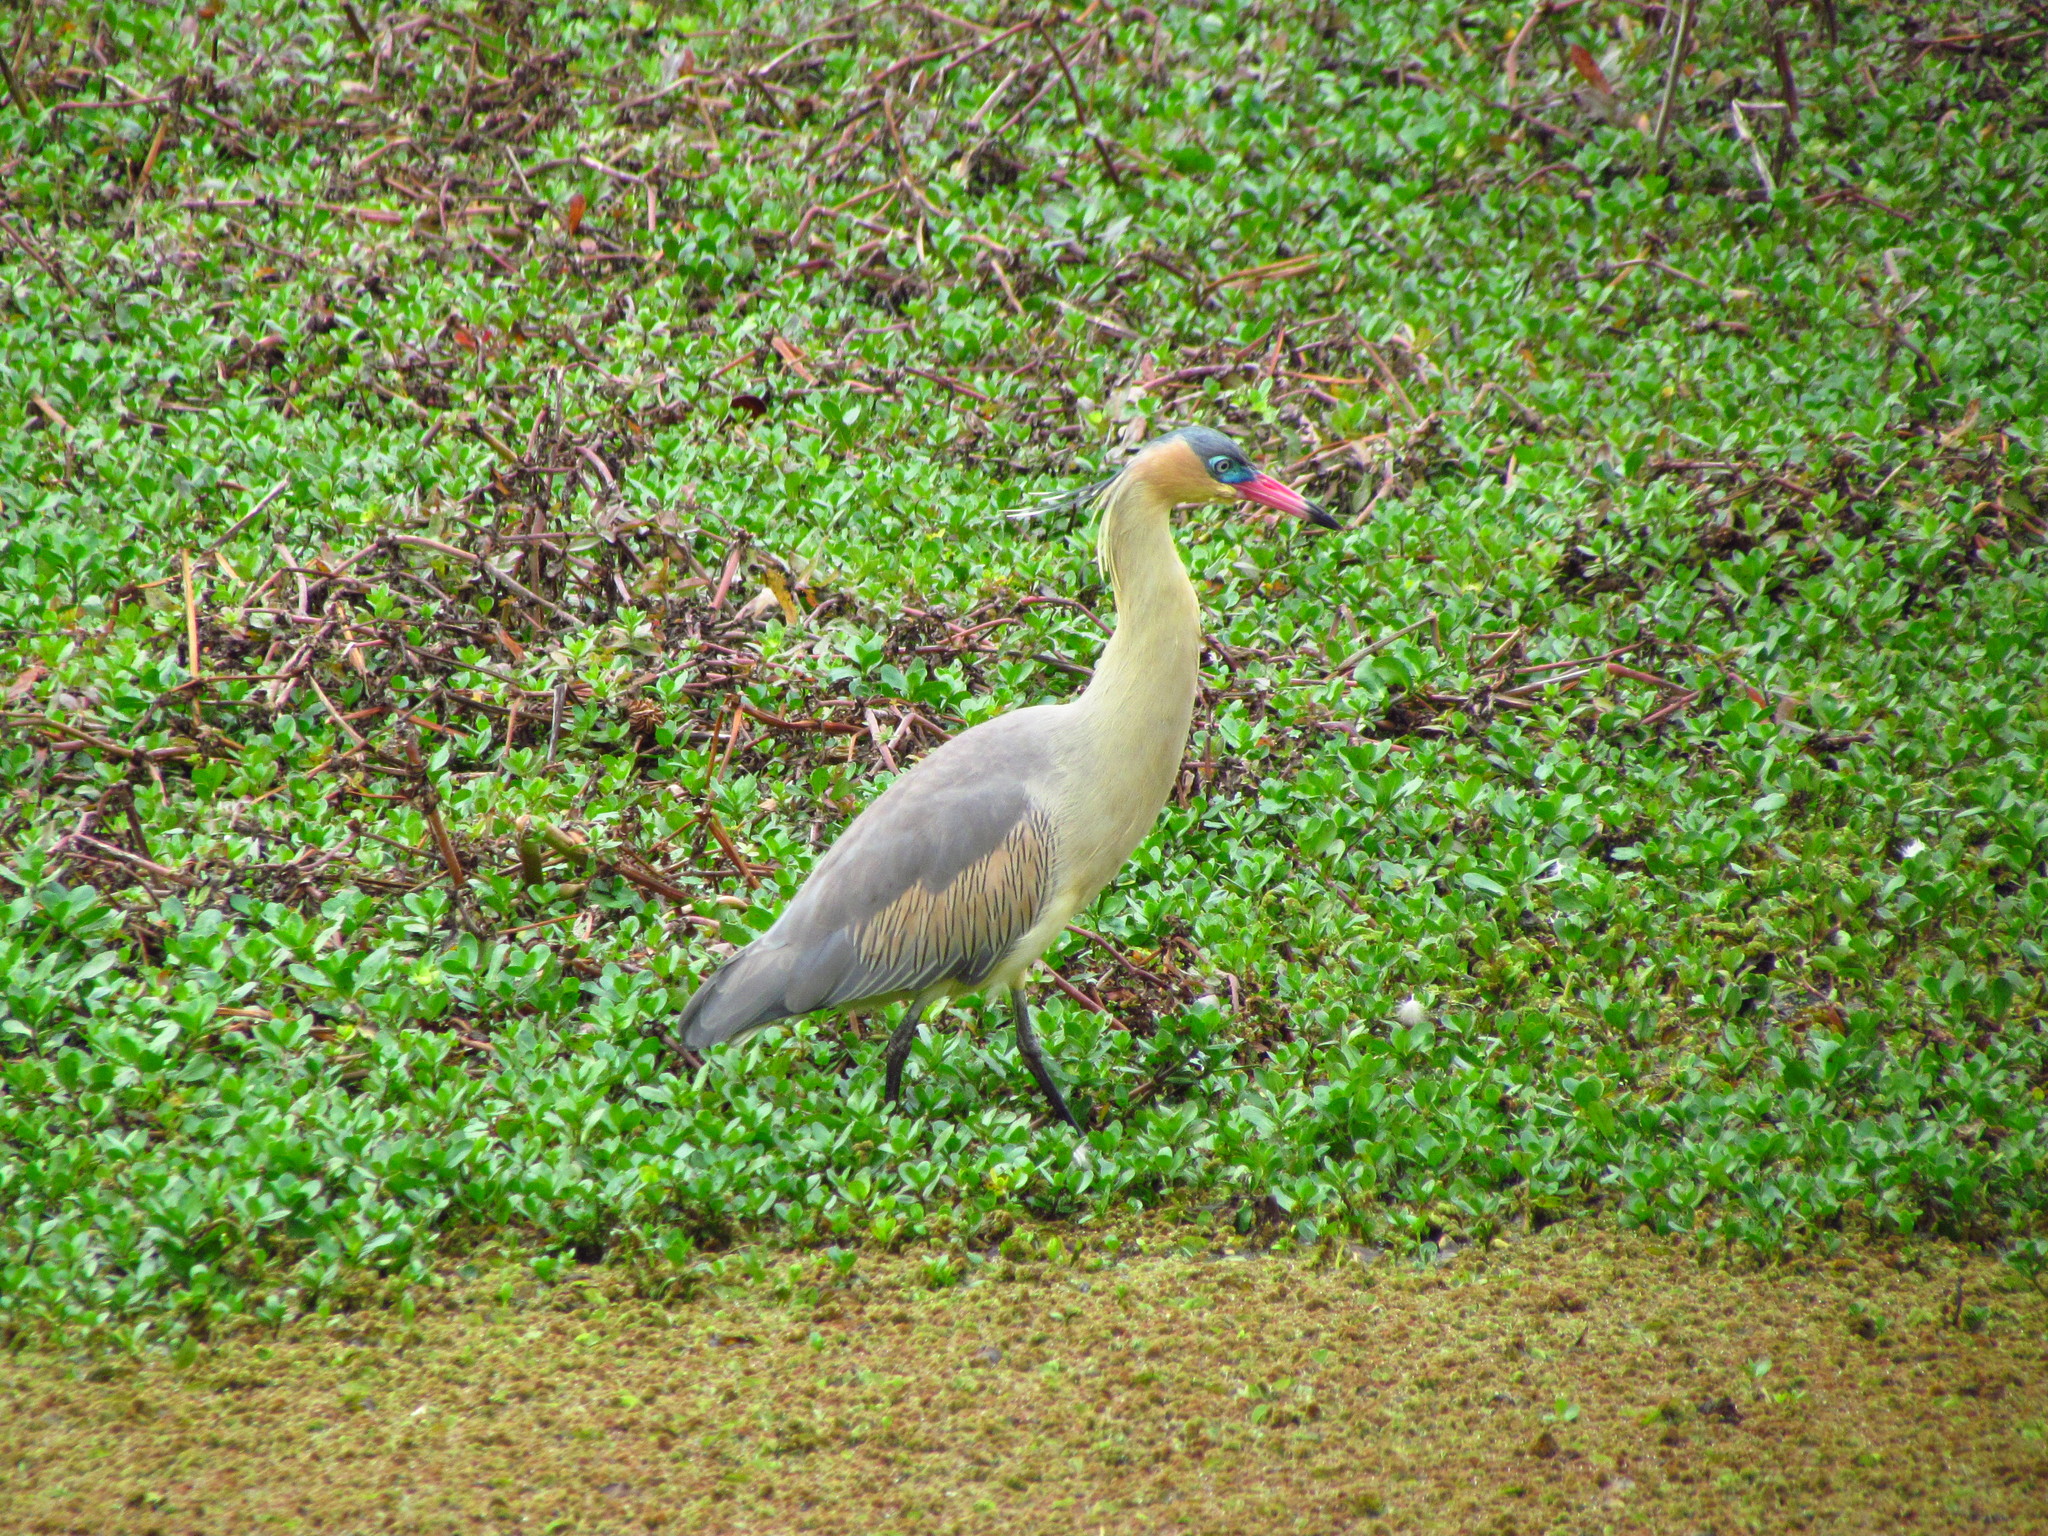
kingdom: Animalia
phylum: Chordata
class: Aves
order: Pelecaniformes
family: Ardeidae
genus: Syrigma
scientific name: Syrigma sibilatrix
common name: Whistling heron
